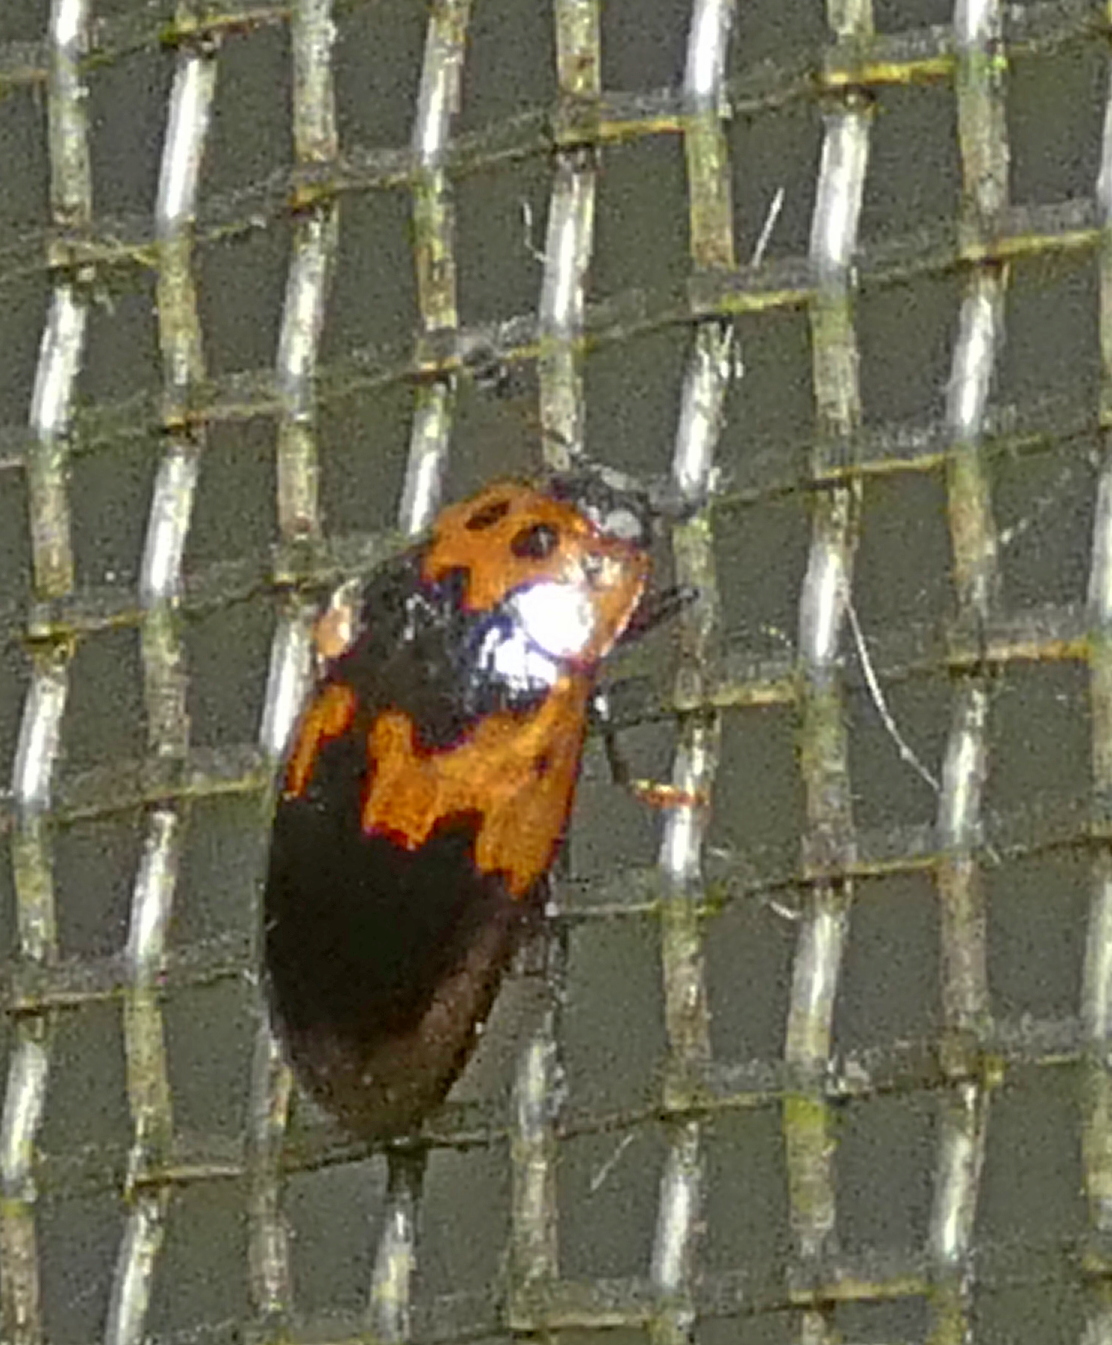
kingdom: Animalia
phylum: Arthropoda
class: Insecta
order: Coleoptera
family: Erotylidae
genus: Ischyrus
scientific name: Ischyrus
